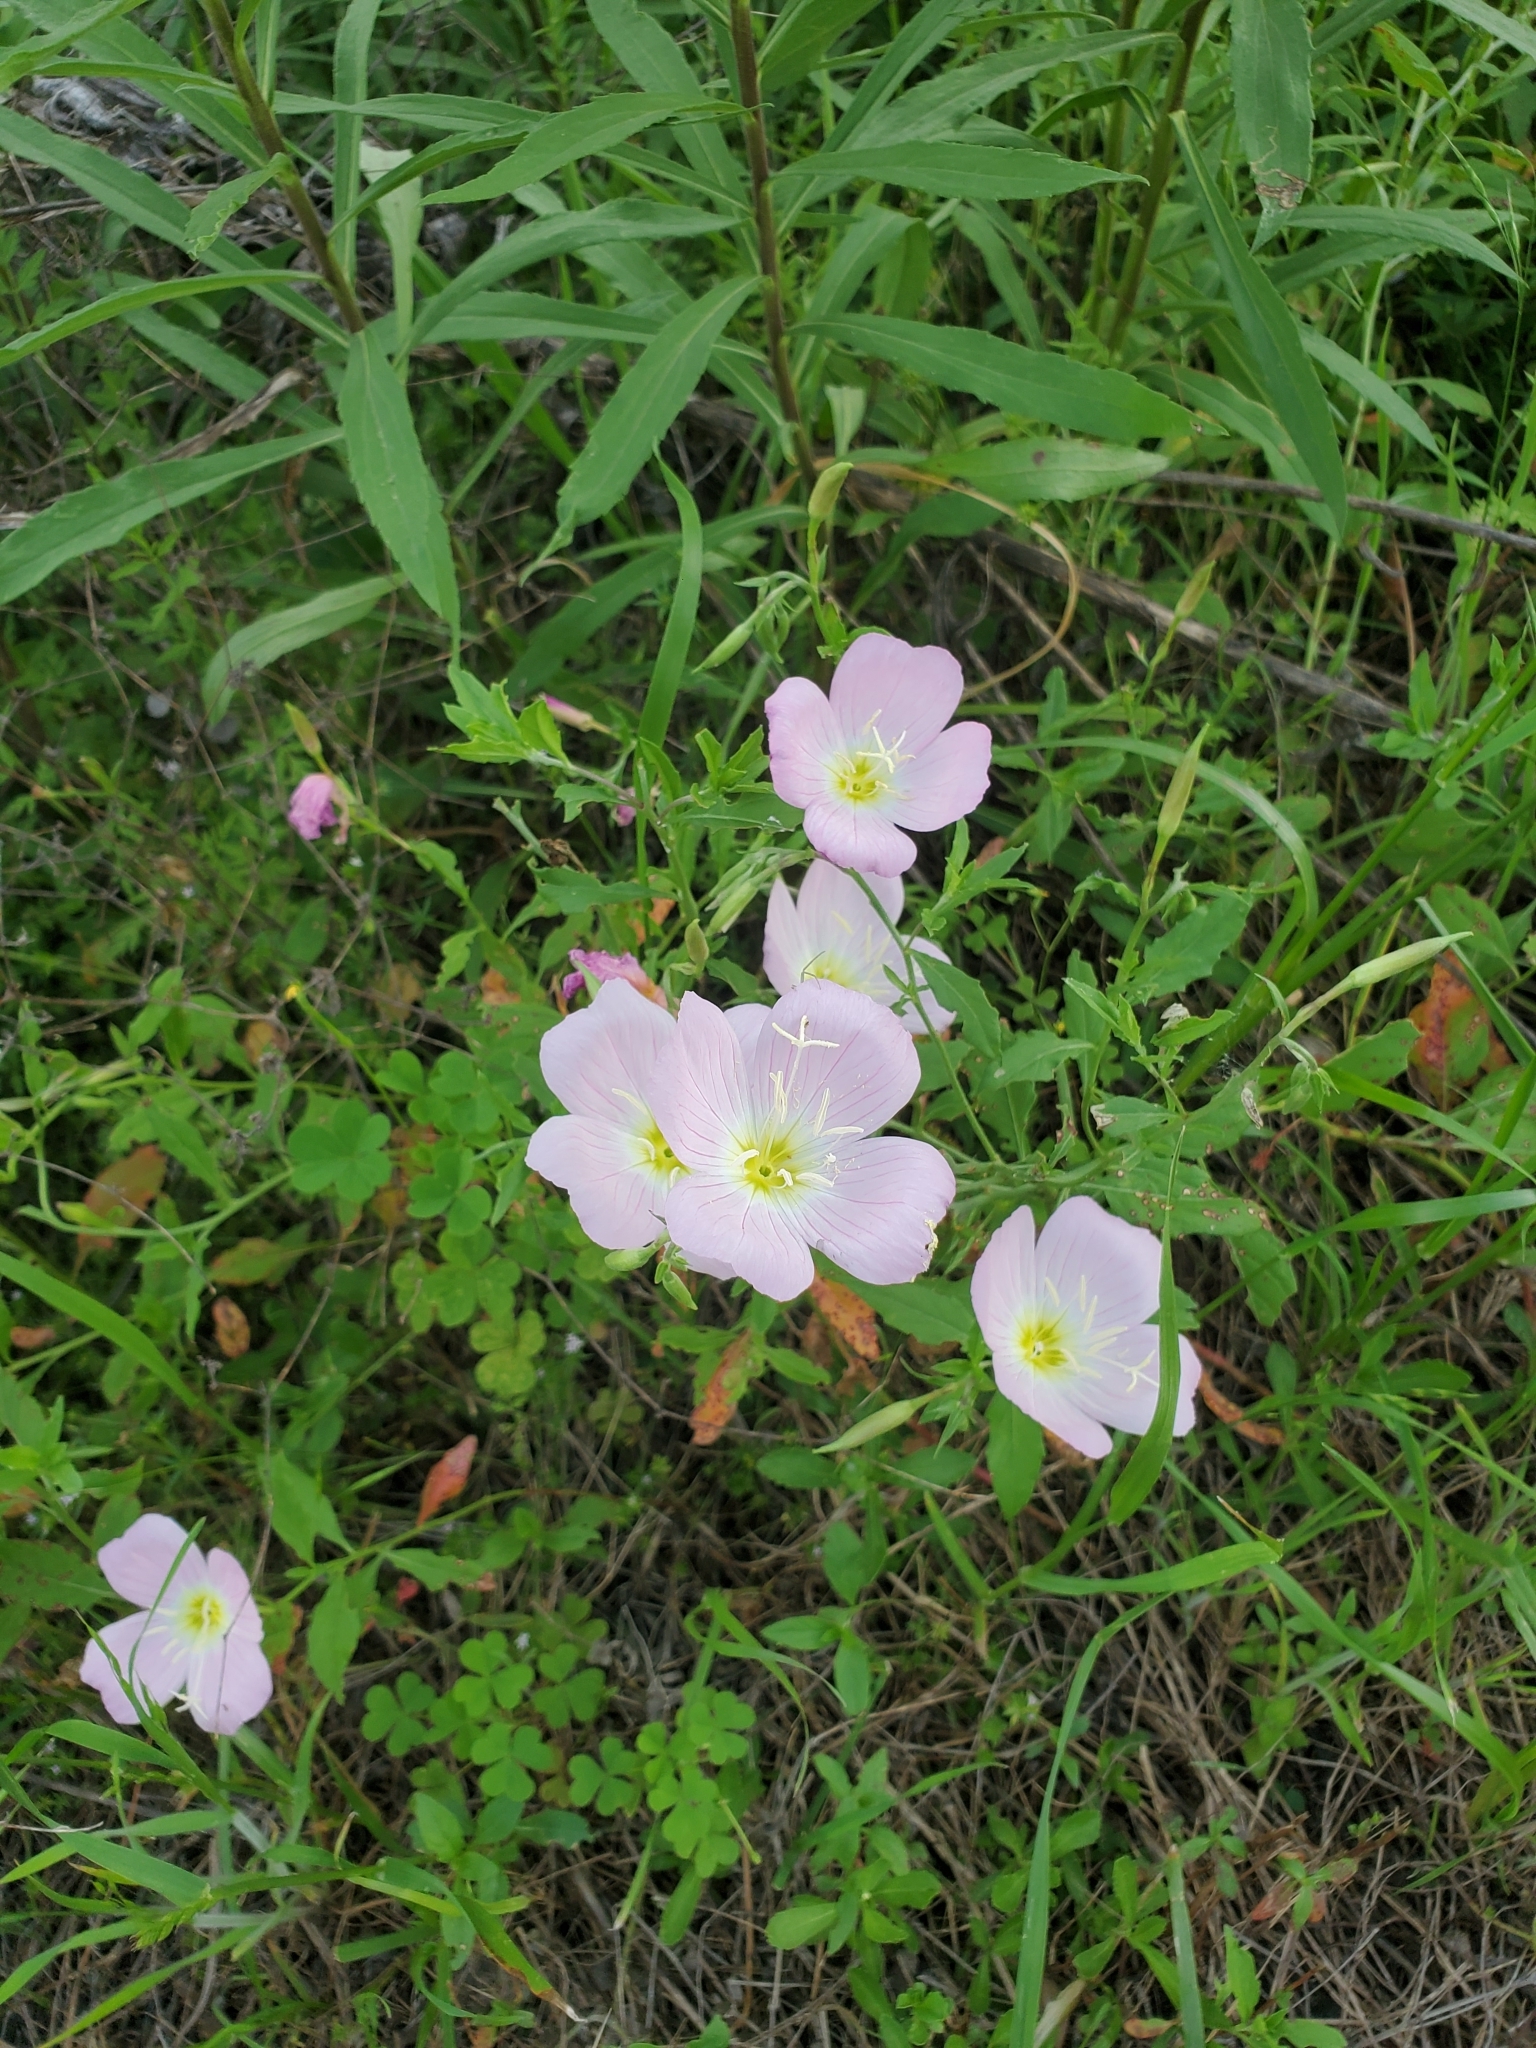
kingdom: Plantae
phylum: Tracheophyta
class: Magnoliopsida
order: Myrtales
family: Onagraceae
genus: Oenothera
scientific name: Oenothera speciosa
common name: White evening-primrose
